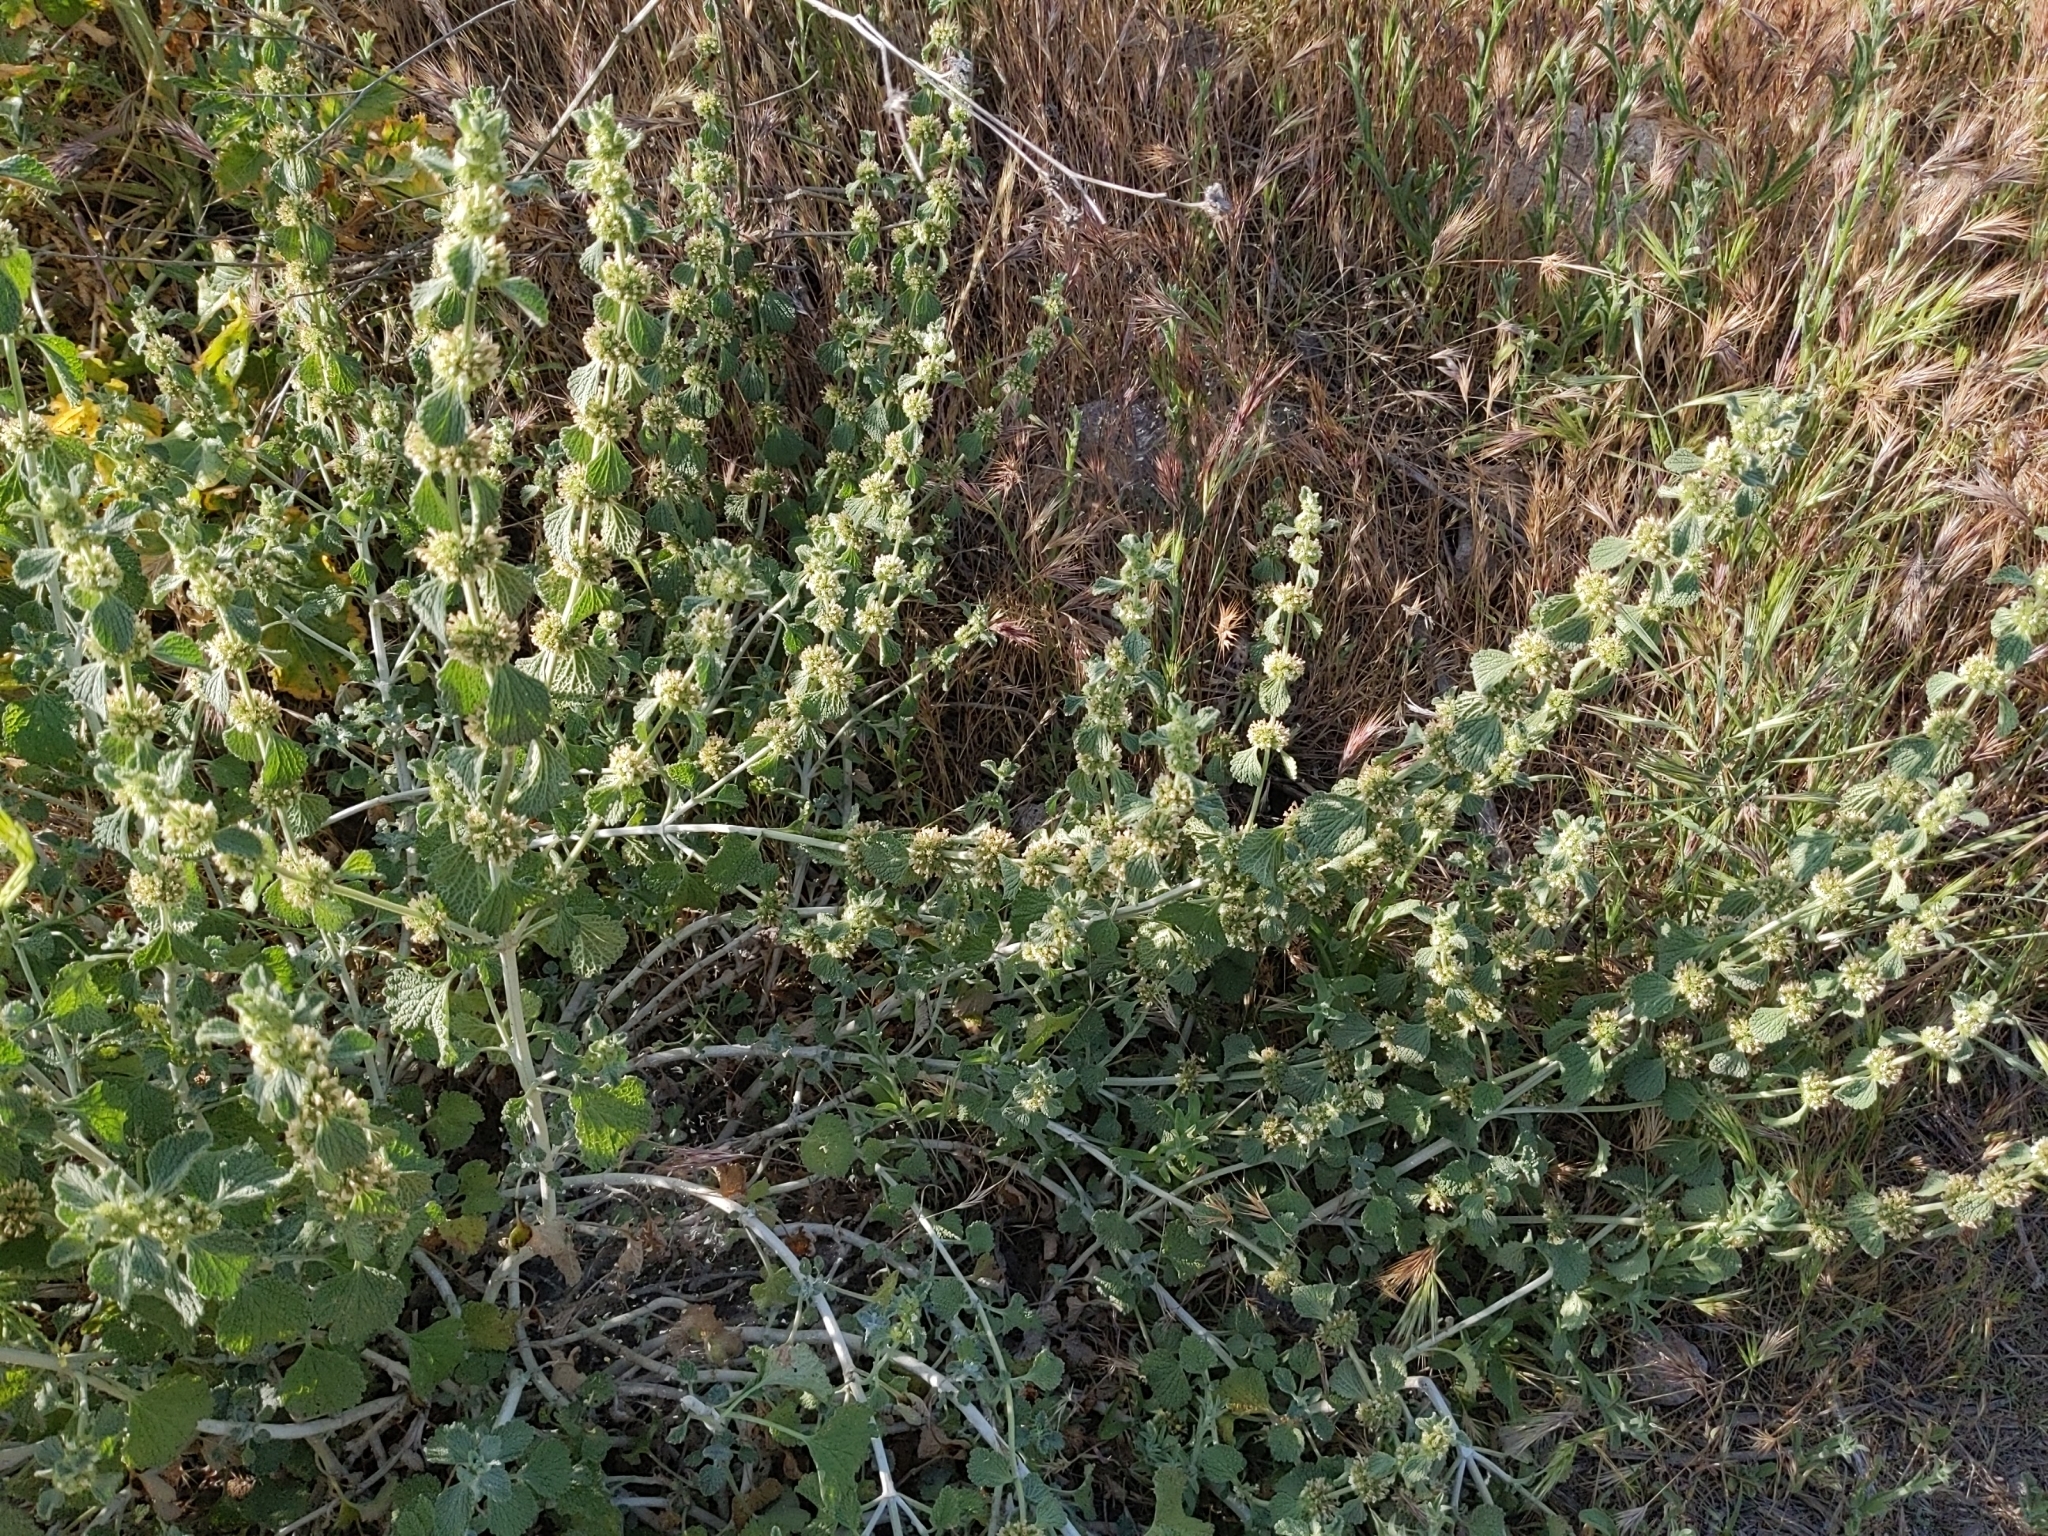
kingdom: Plantae
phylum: Tracheophyta
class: Magnoliopsida
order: Lamiales
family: Lamiaceae
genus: Marrubium
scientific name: Marrubium vulgare
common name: Horehound
